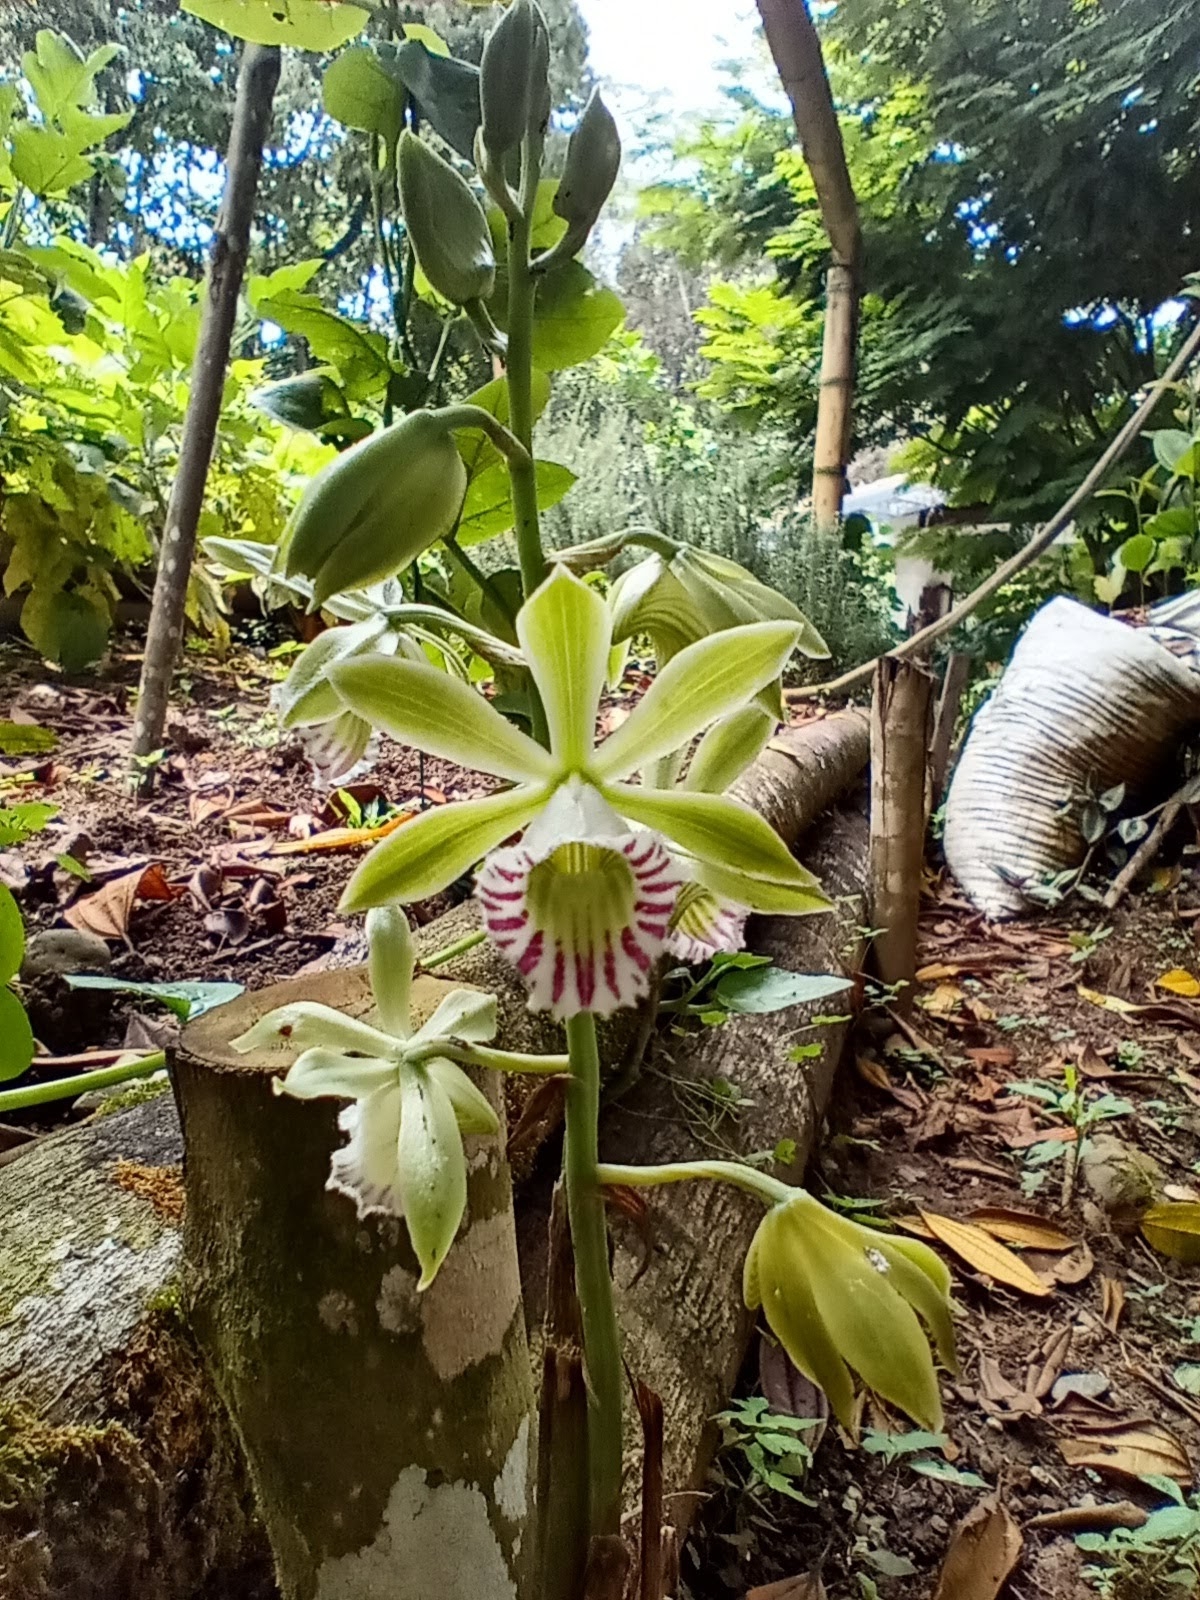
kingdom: Plantae
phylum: Tracheophyta
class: Liliopsida
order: Asparagales
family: Orchidaceae
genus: Galeandra
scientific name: Galeandra beyrichii
